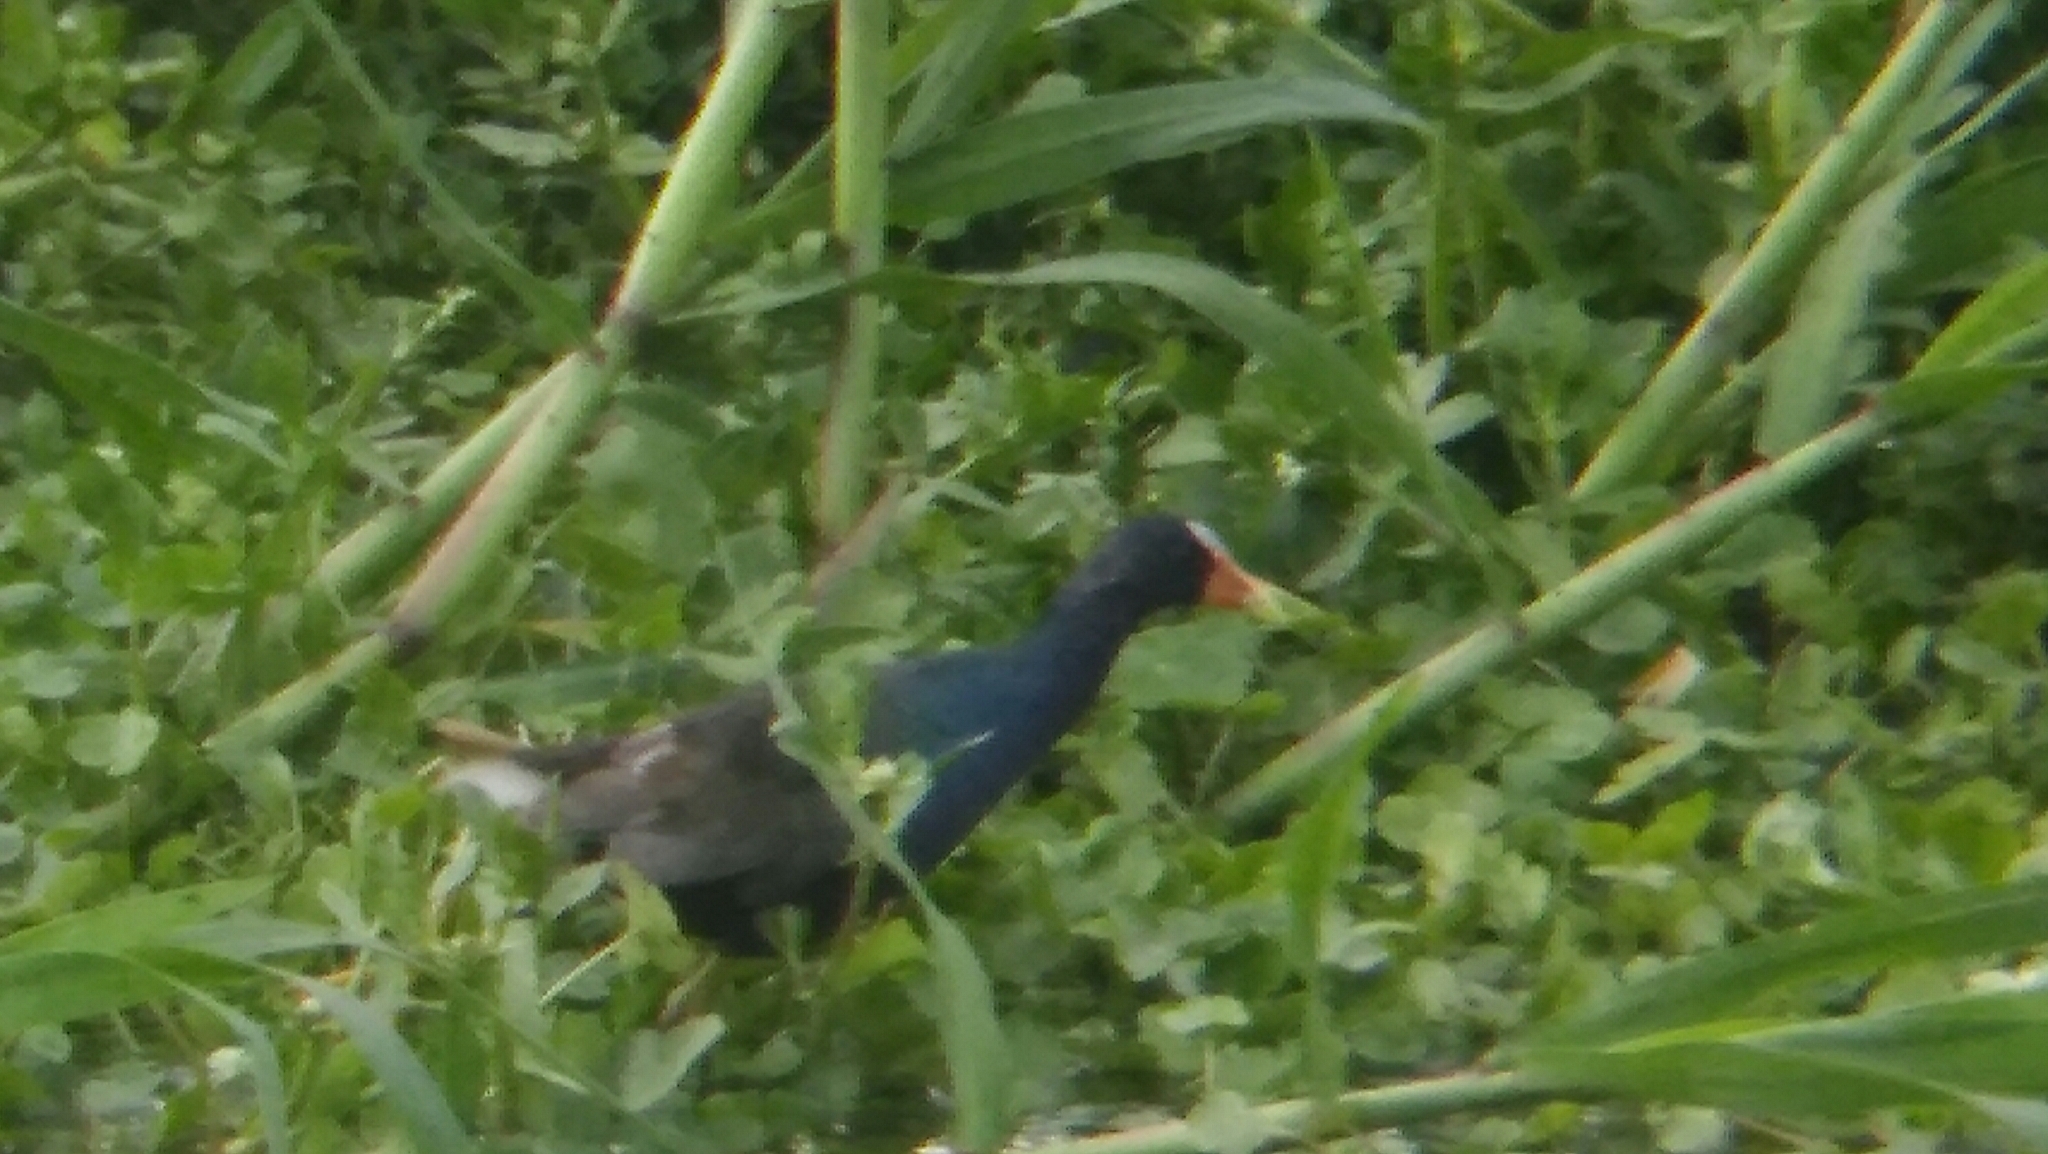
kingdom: Animalia
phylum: Chordata
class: Aves
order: Gruiformes
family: Rallidae
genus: Porphyrio
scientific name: Porphyrio martinica
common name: Purple gallinule
